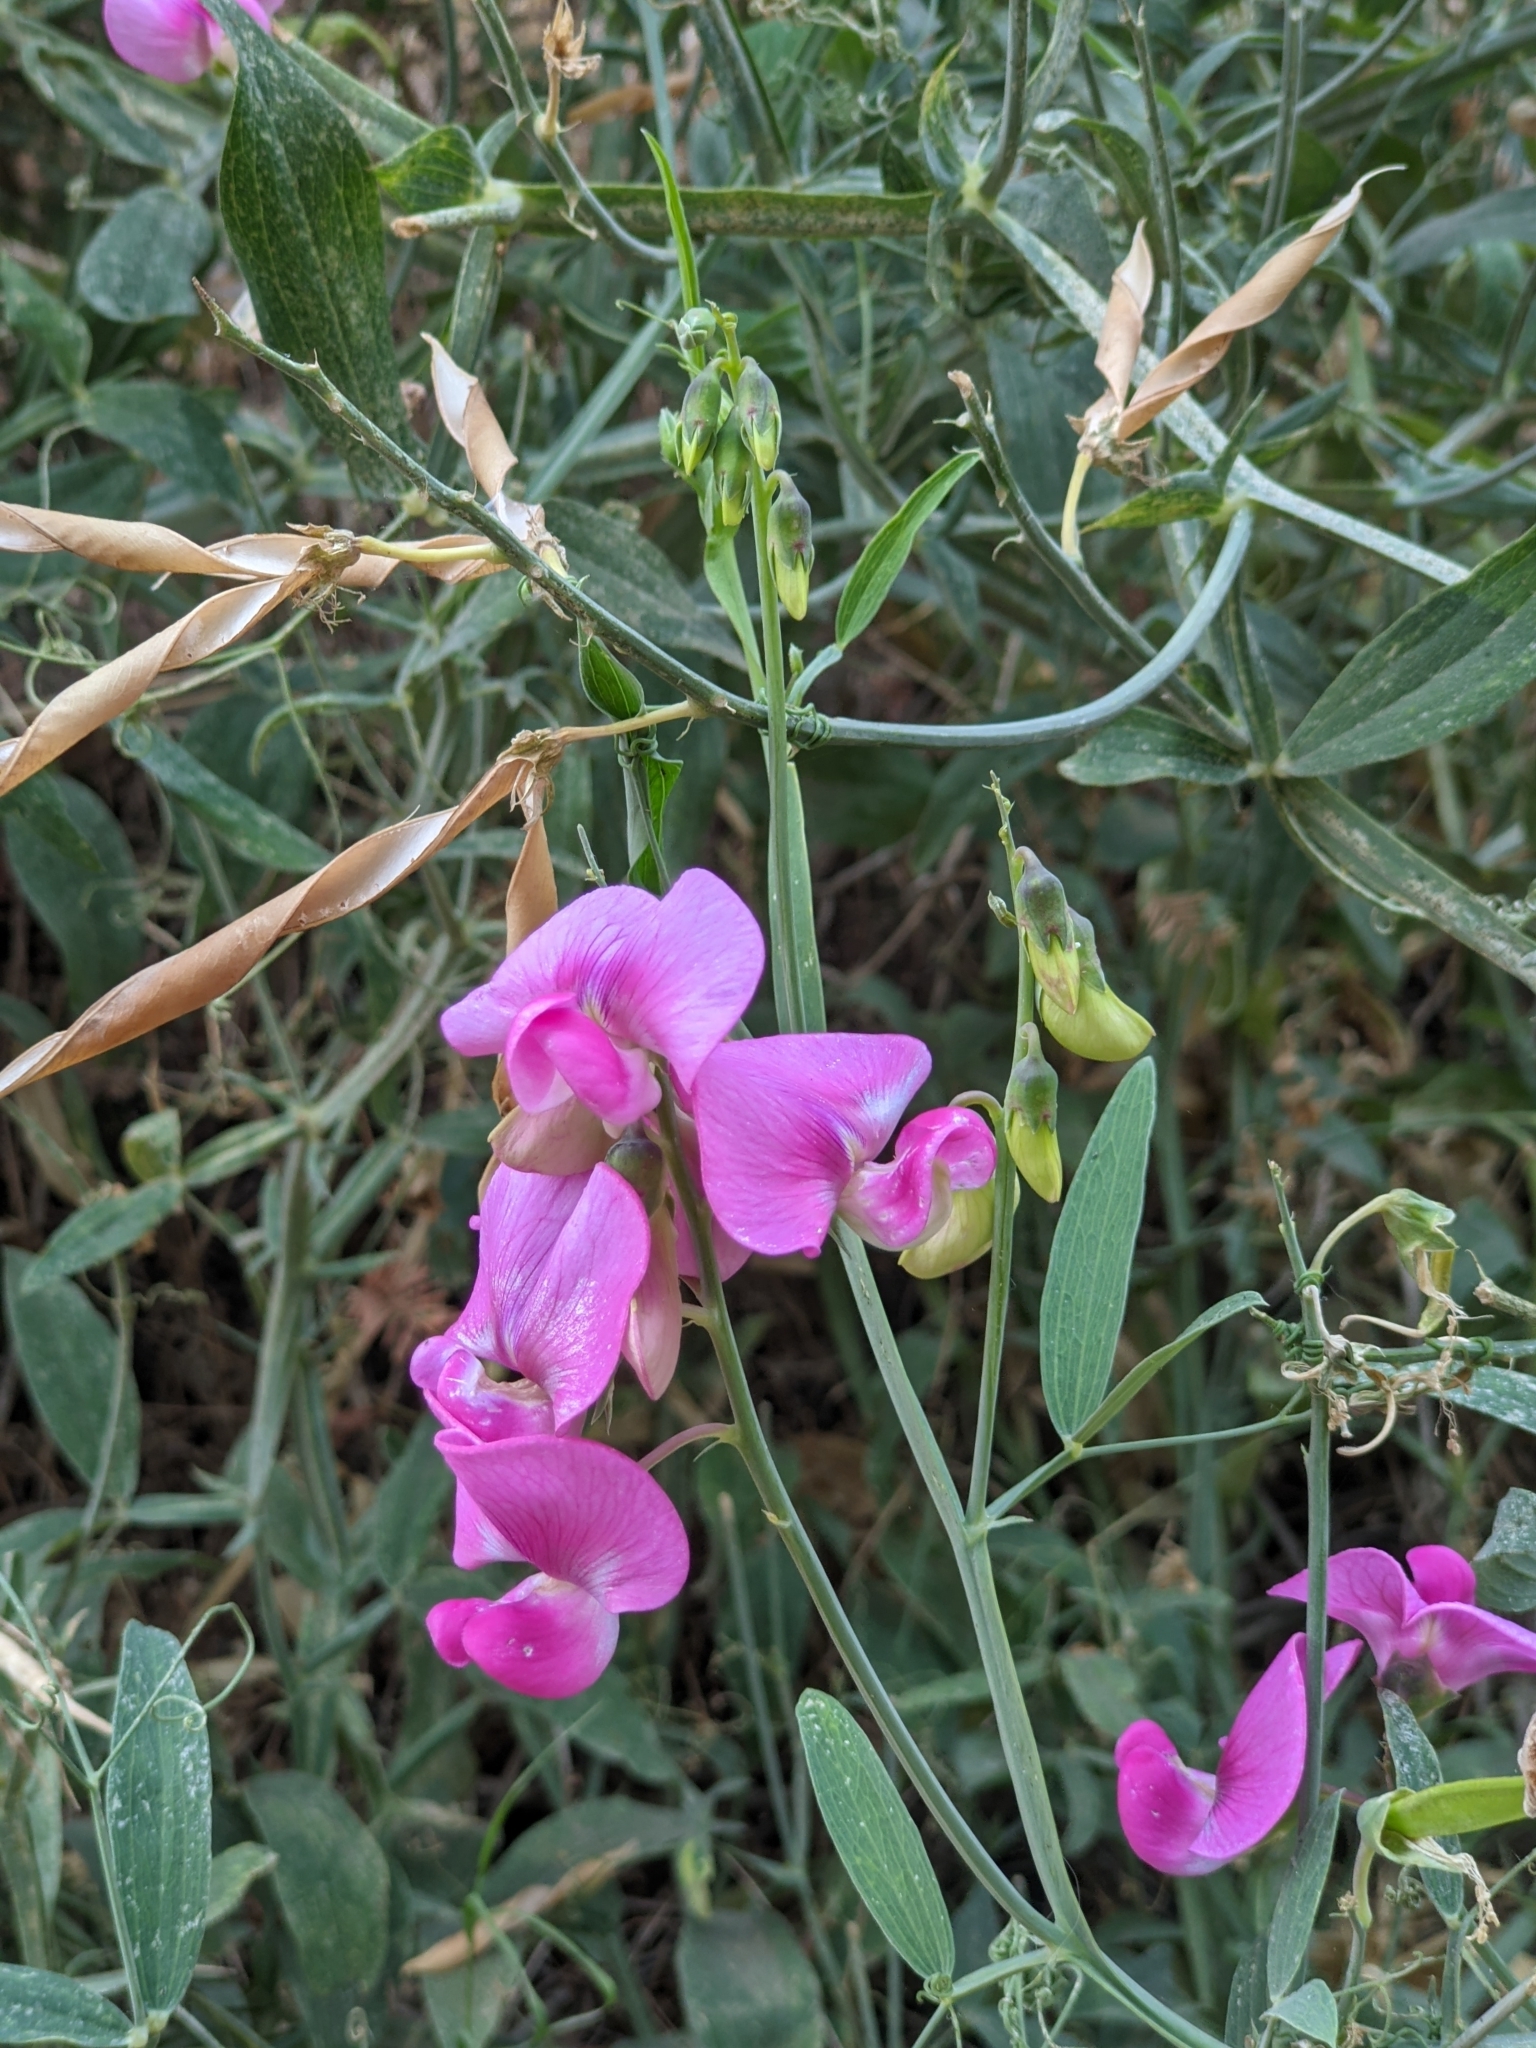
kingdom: Plantae
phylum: Tracheophyta
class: Magnoliopsida
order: Fabales
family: Fabaceae
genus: Lathyrus
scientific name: Lathyrus latifolius
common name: Perennial pea
